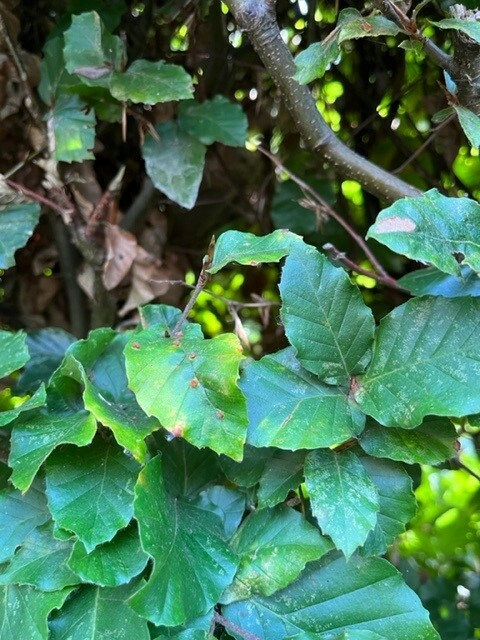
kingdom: Animalia
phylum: Arthropoda
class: Insecta
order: Hymenoptera
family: Vespidae
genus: Vespa
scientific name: Vespa velutina
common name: Asian hornet
